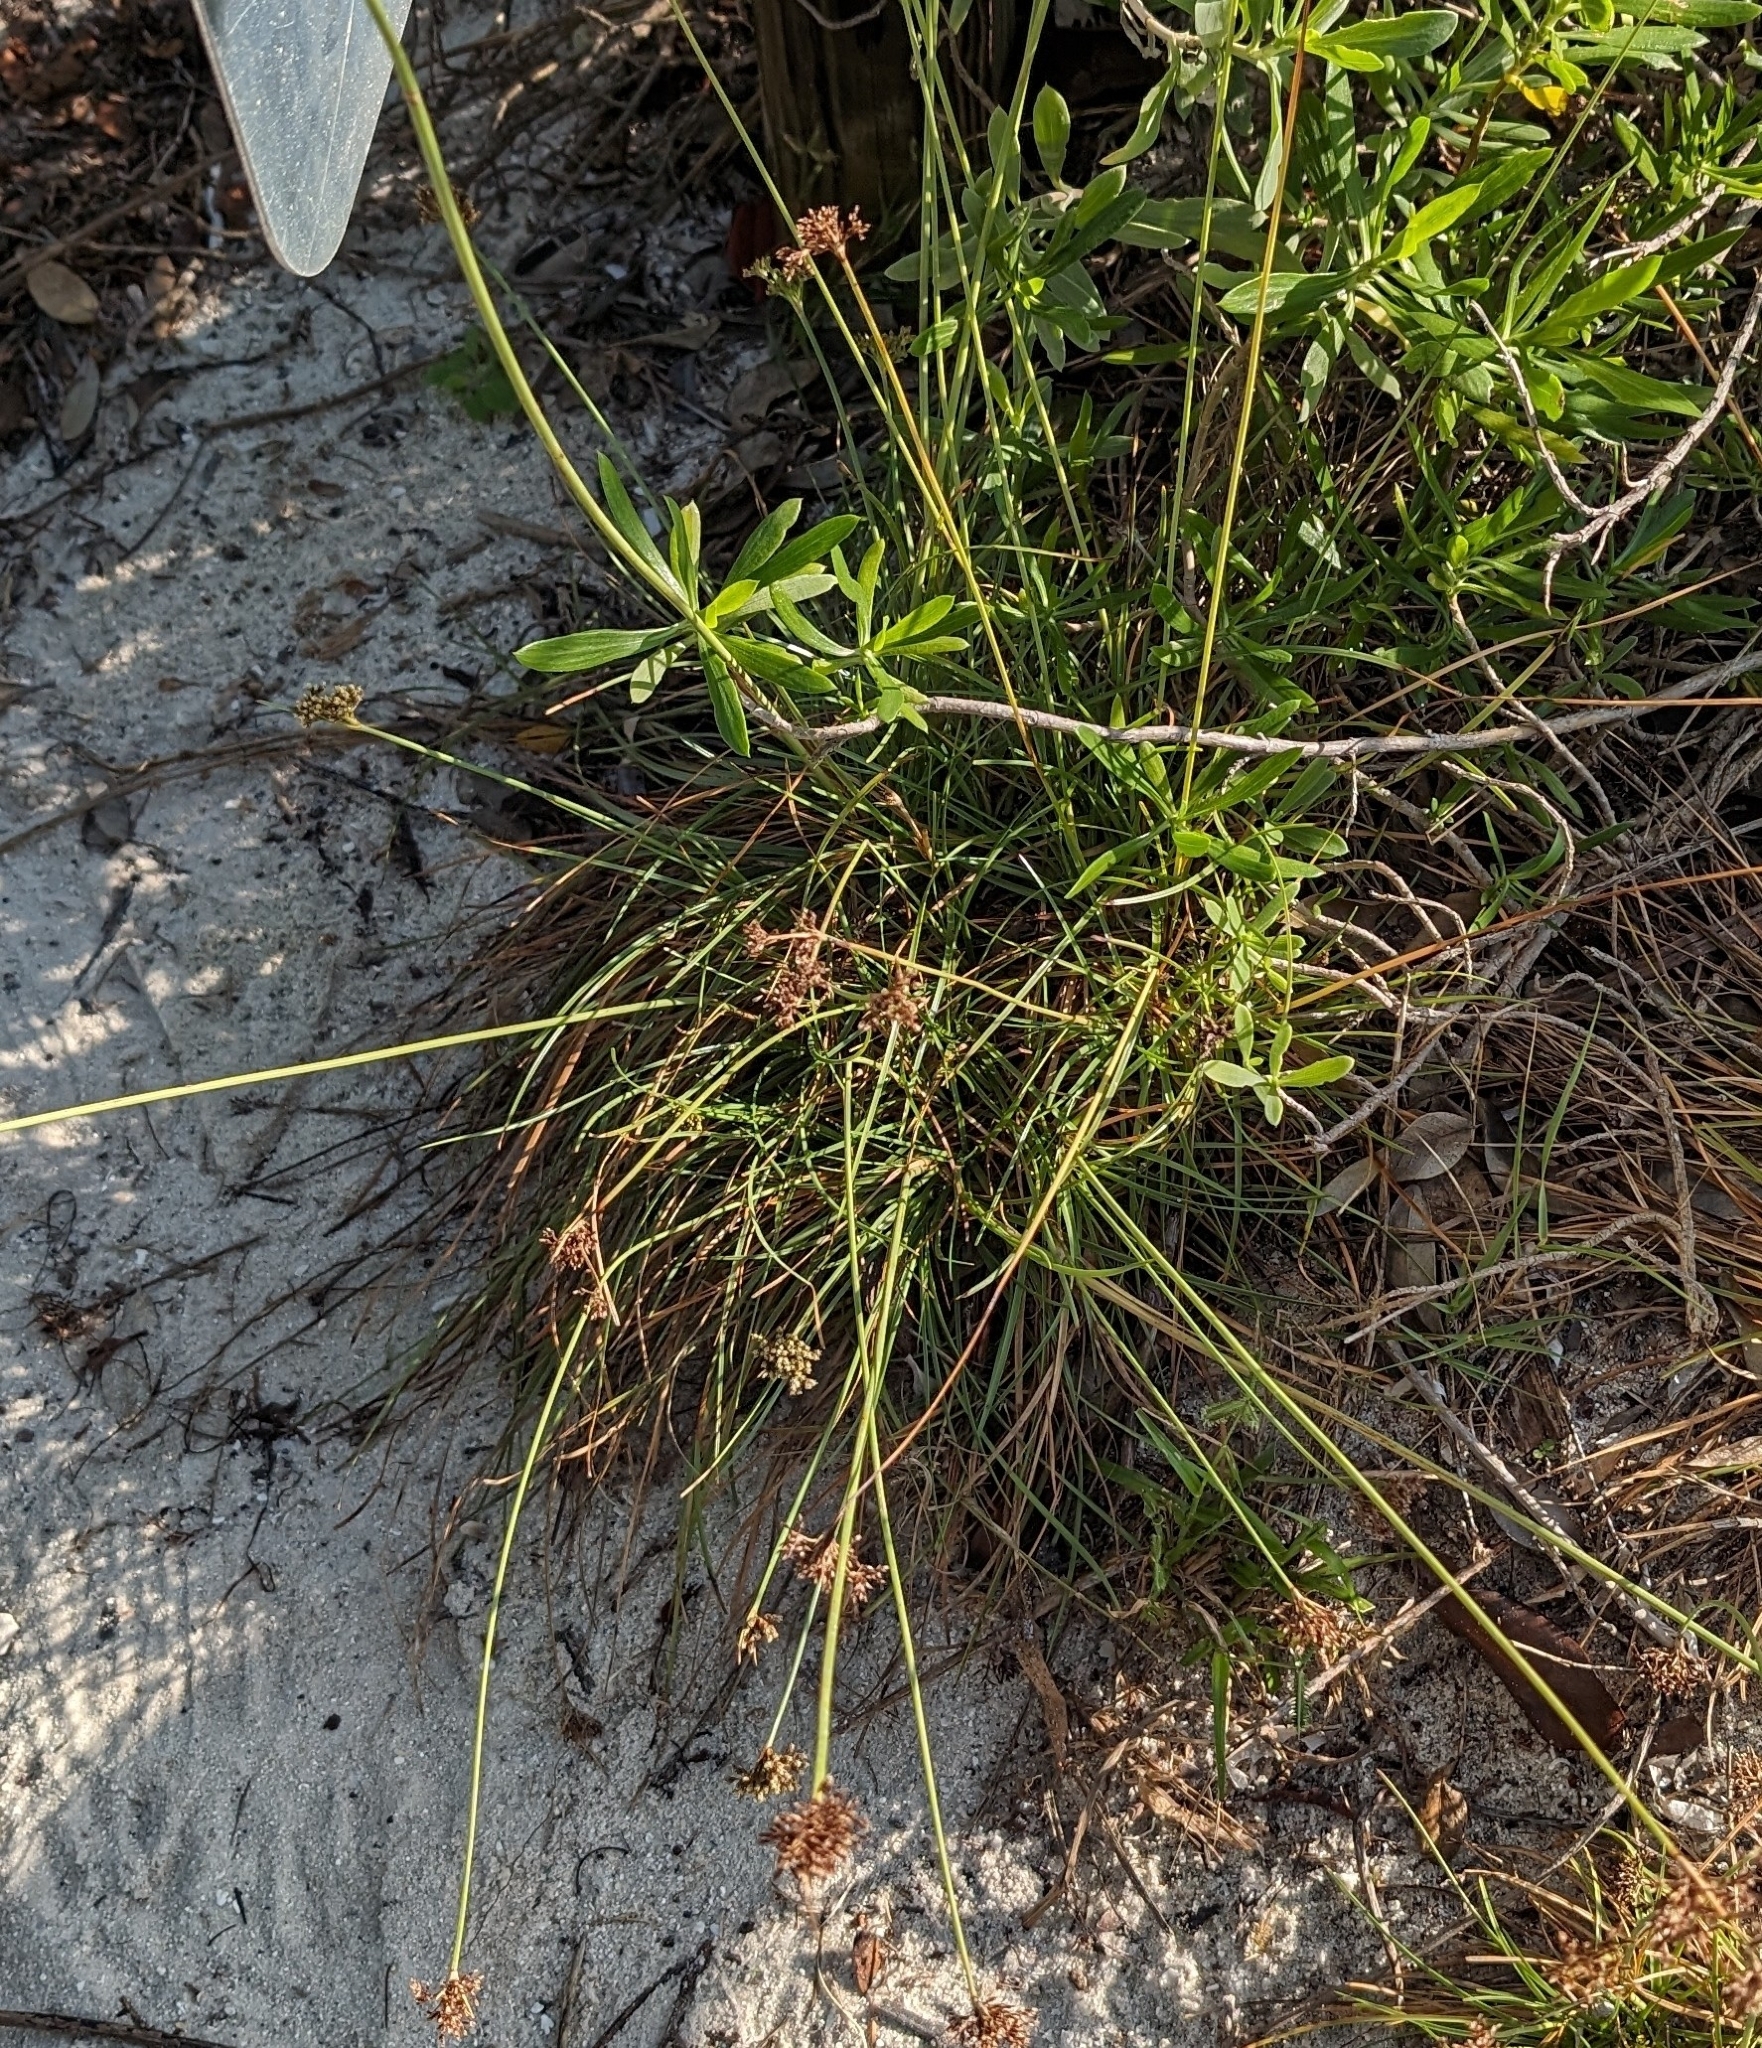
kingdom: Plantae
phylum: Tracheophyta
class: Liliopsida
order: Poales
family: Cyperaceae
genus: Fimbristylis
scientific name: Fimbristylis cymosa
